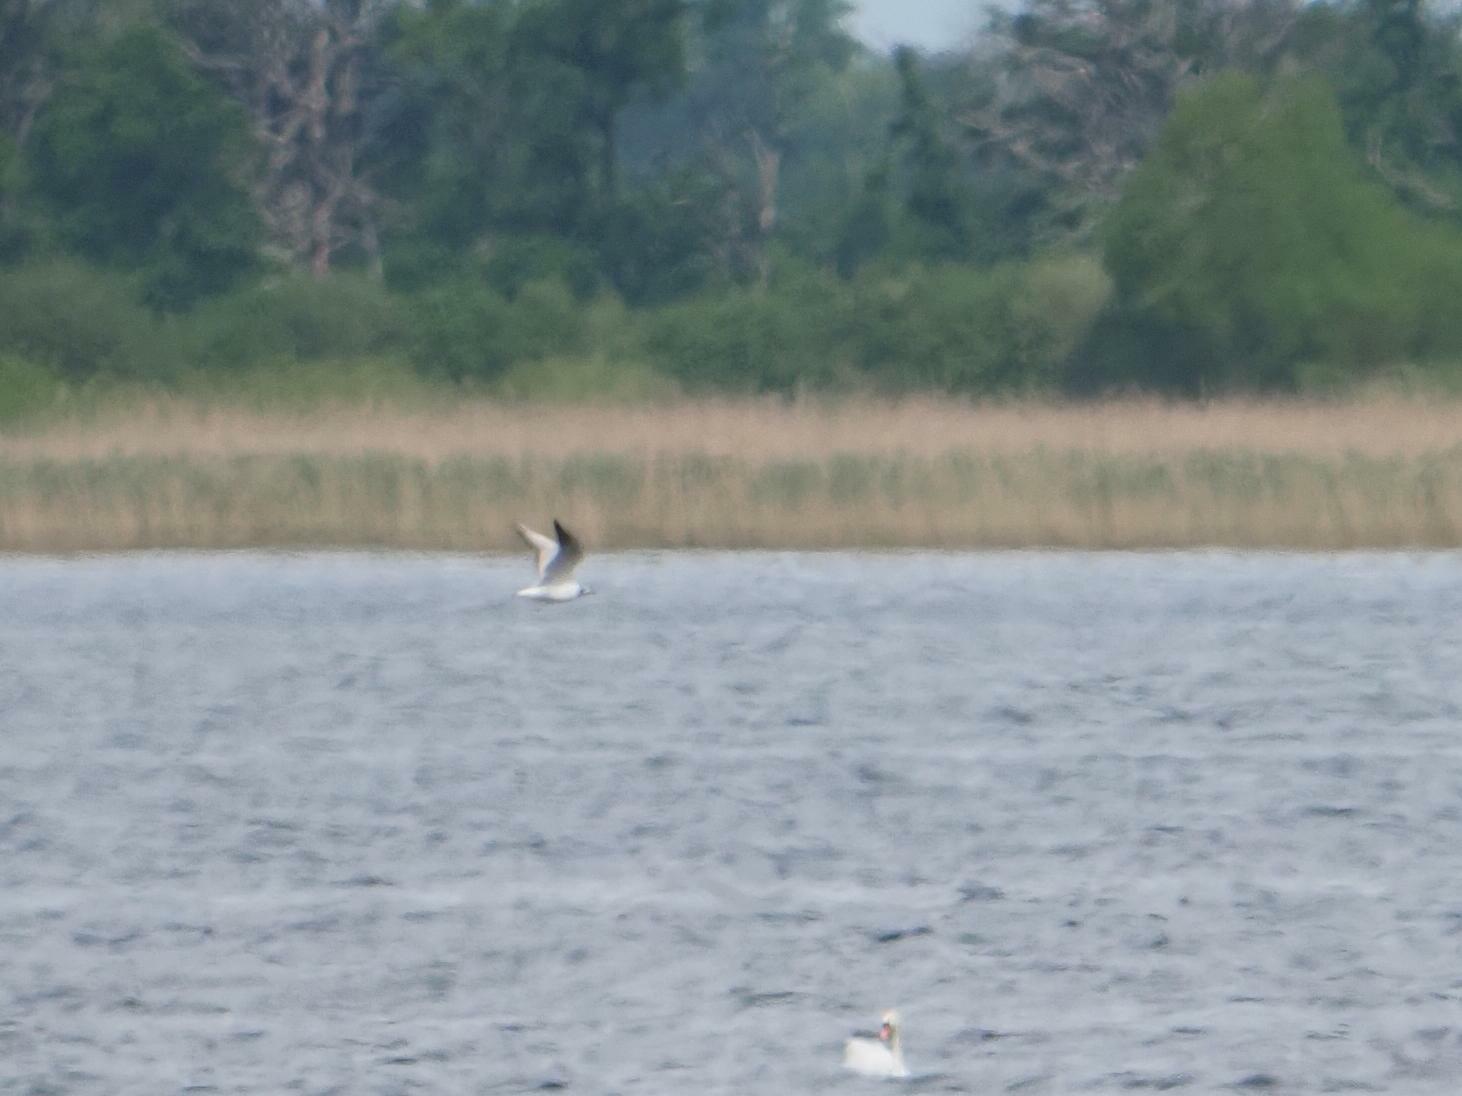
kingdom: Animalia
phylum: Chordata
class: Aves
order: Charadriiformes
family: Laridae
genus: Chroicocephalus
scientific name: Chroicocephalus ridibundus
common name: Black-headed gull
